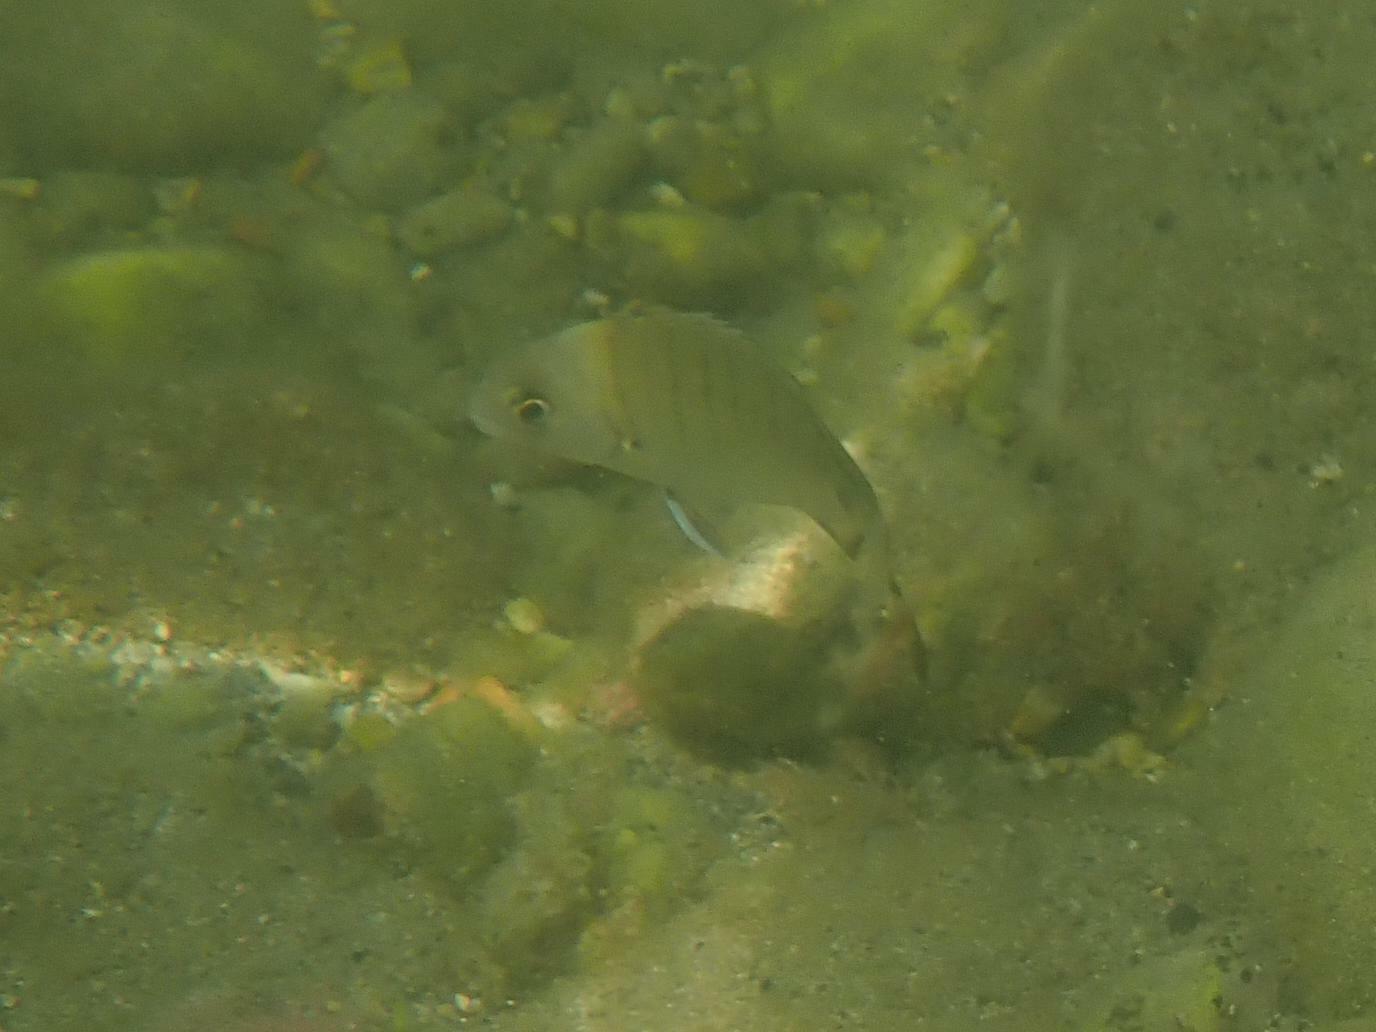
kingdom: Animalia
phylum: Chordata
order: Perciformes
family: Sparidae
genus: Diplodus
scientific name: Diplodus sargus
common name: White seabream
